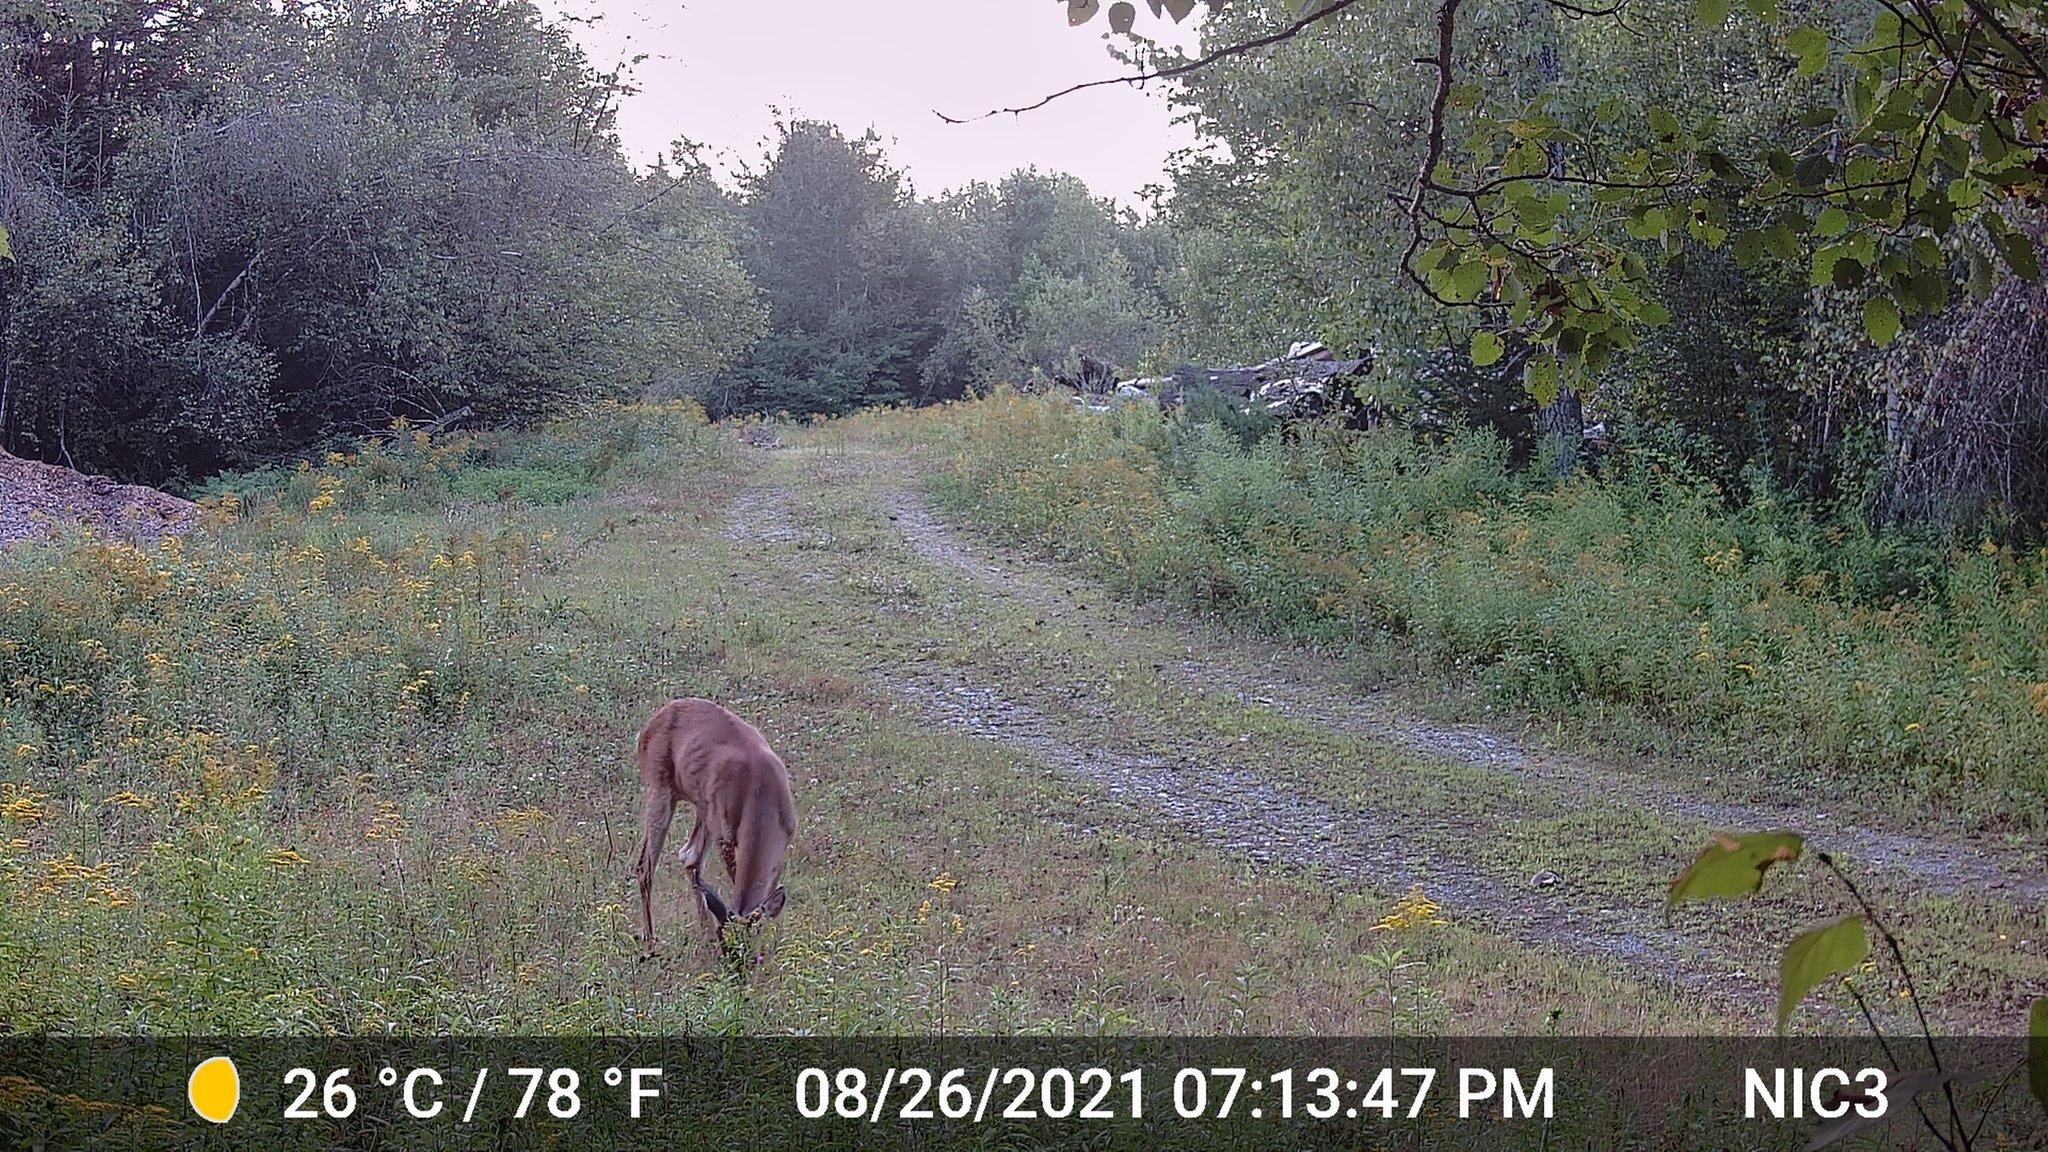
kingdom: Animalia
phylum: Chordata
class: Mammalia
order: Artiodactyla
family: Cervidae
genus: Odocoileus
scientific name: Odocoileus virginianus
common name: White-tailed deer
